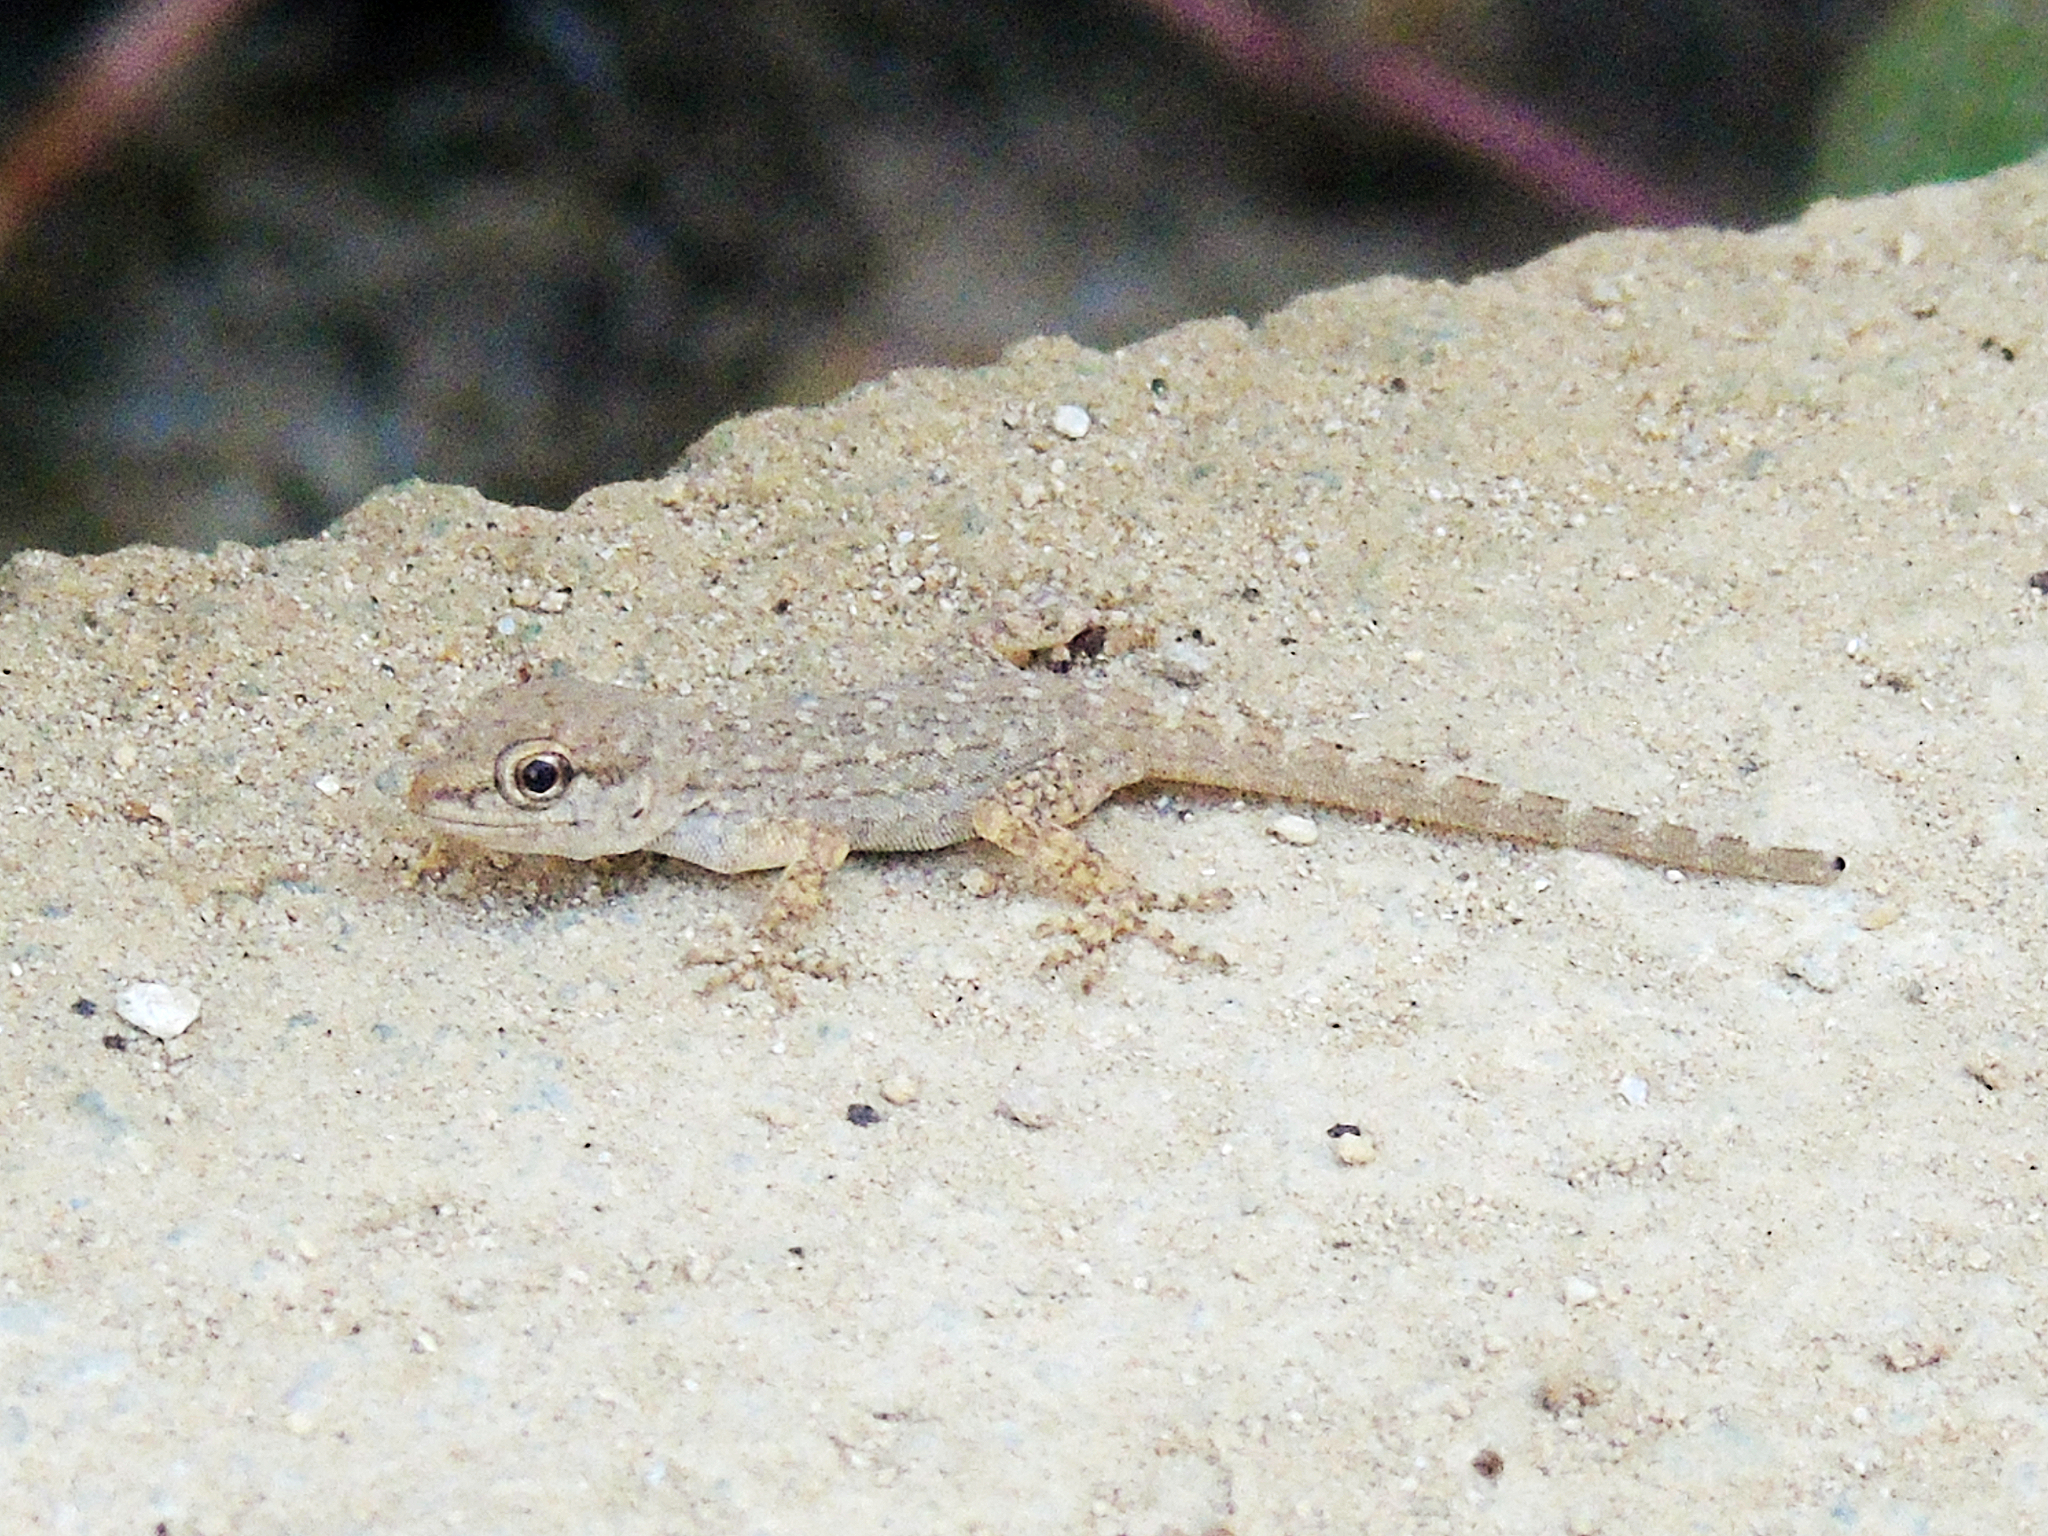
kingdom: Animalia
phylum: Chordata
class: Squamata
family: Sphaerodactylidae
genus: Pristurus
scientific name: Pristurus rupestris
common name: Blanford’s semaphore gecko
